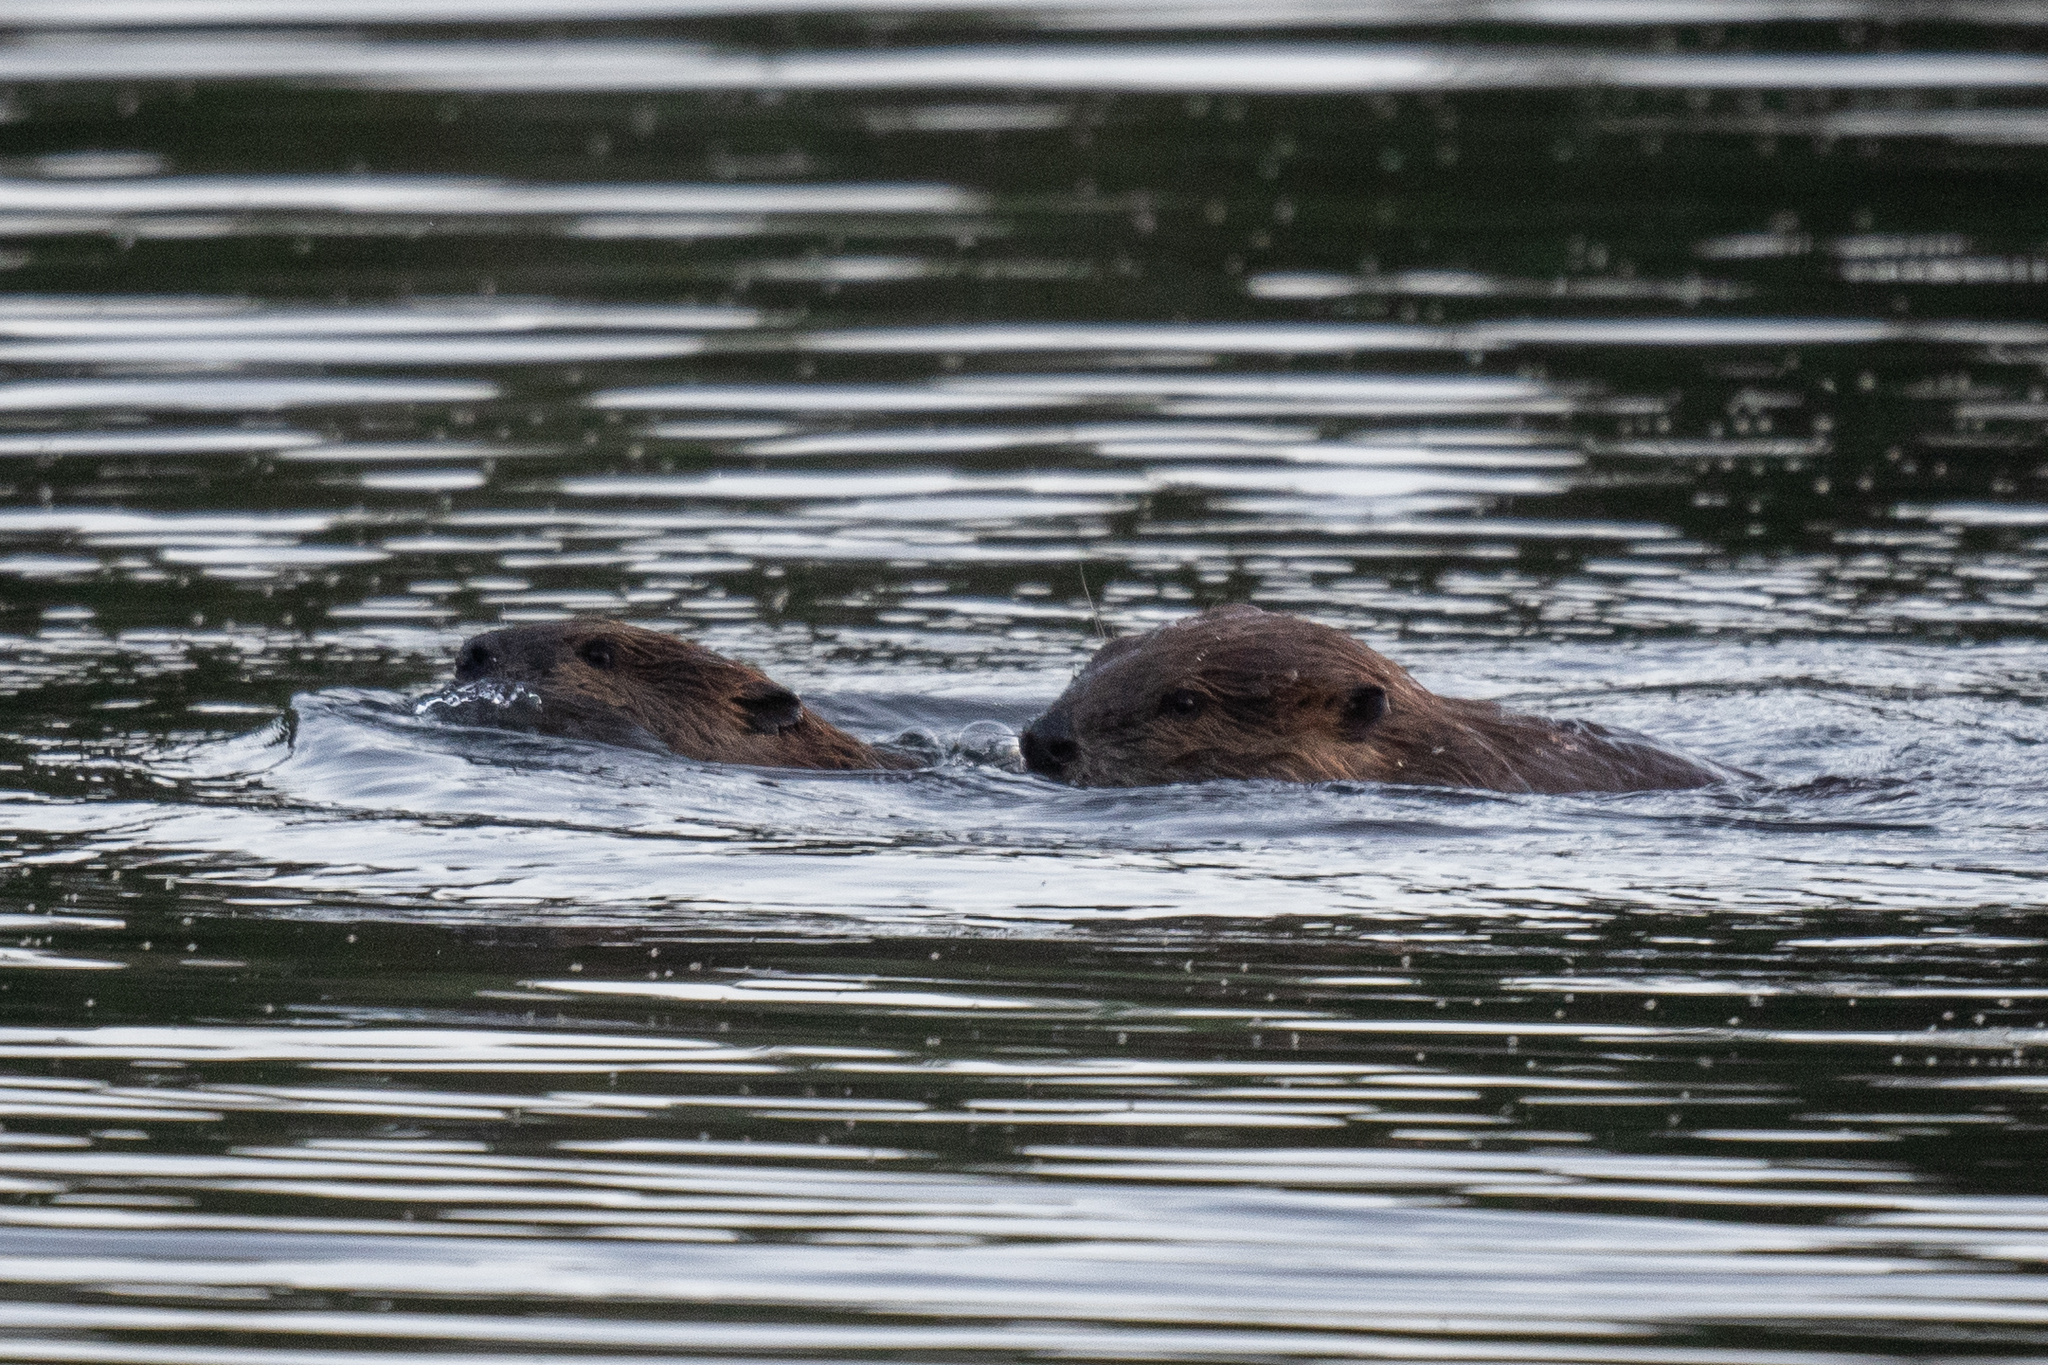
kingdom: Animalia
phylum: Chordata
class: Mammalia
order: Rodentia
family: Castoridae
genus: Castor
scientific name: Castor canadensis
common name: American beaver
